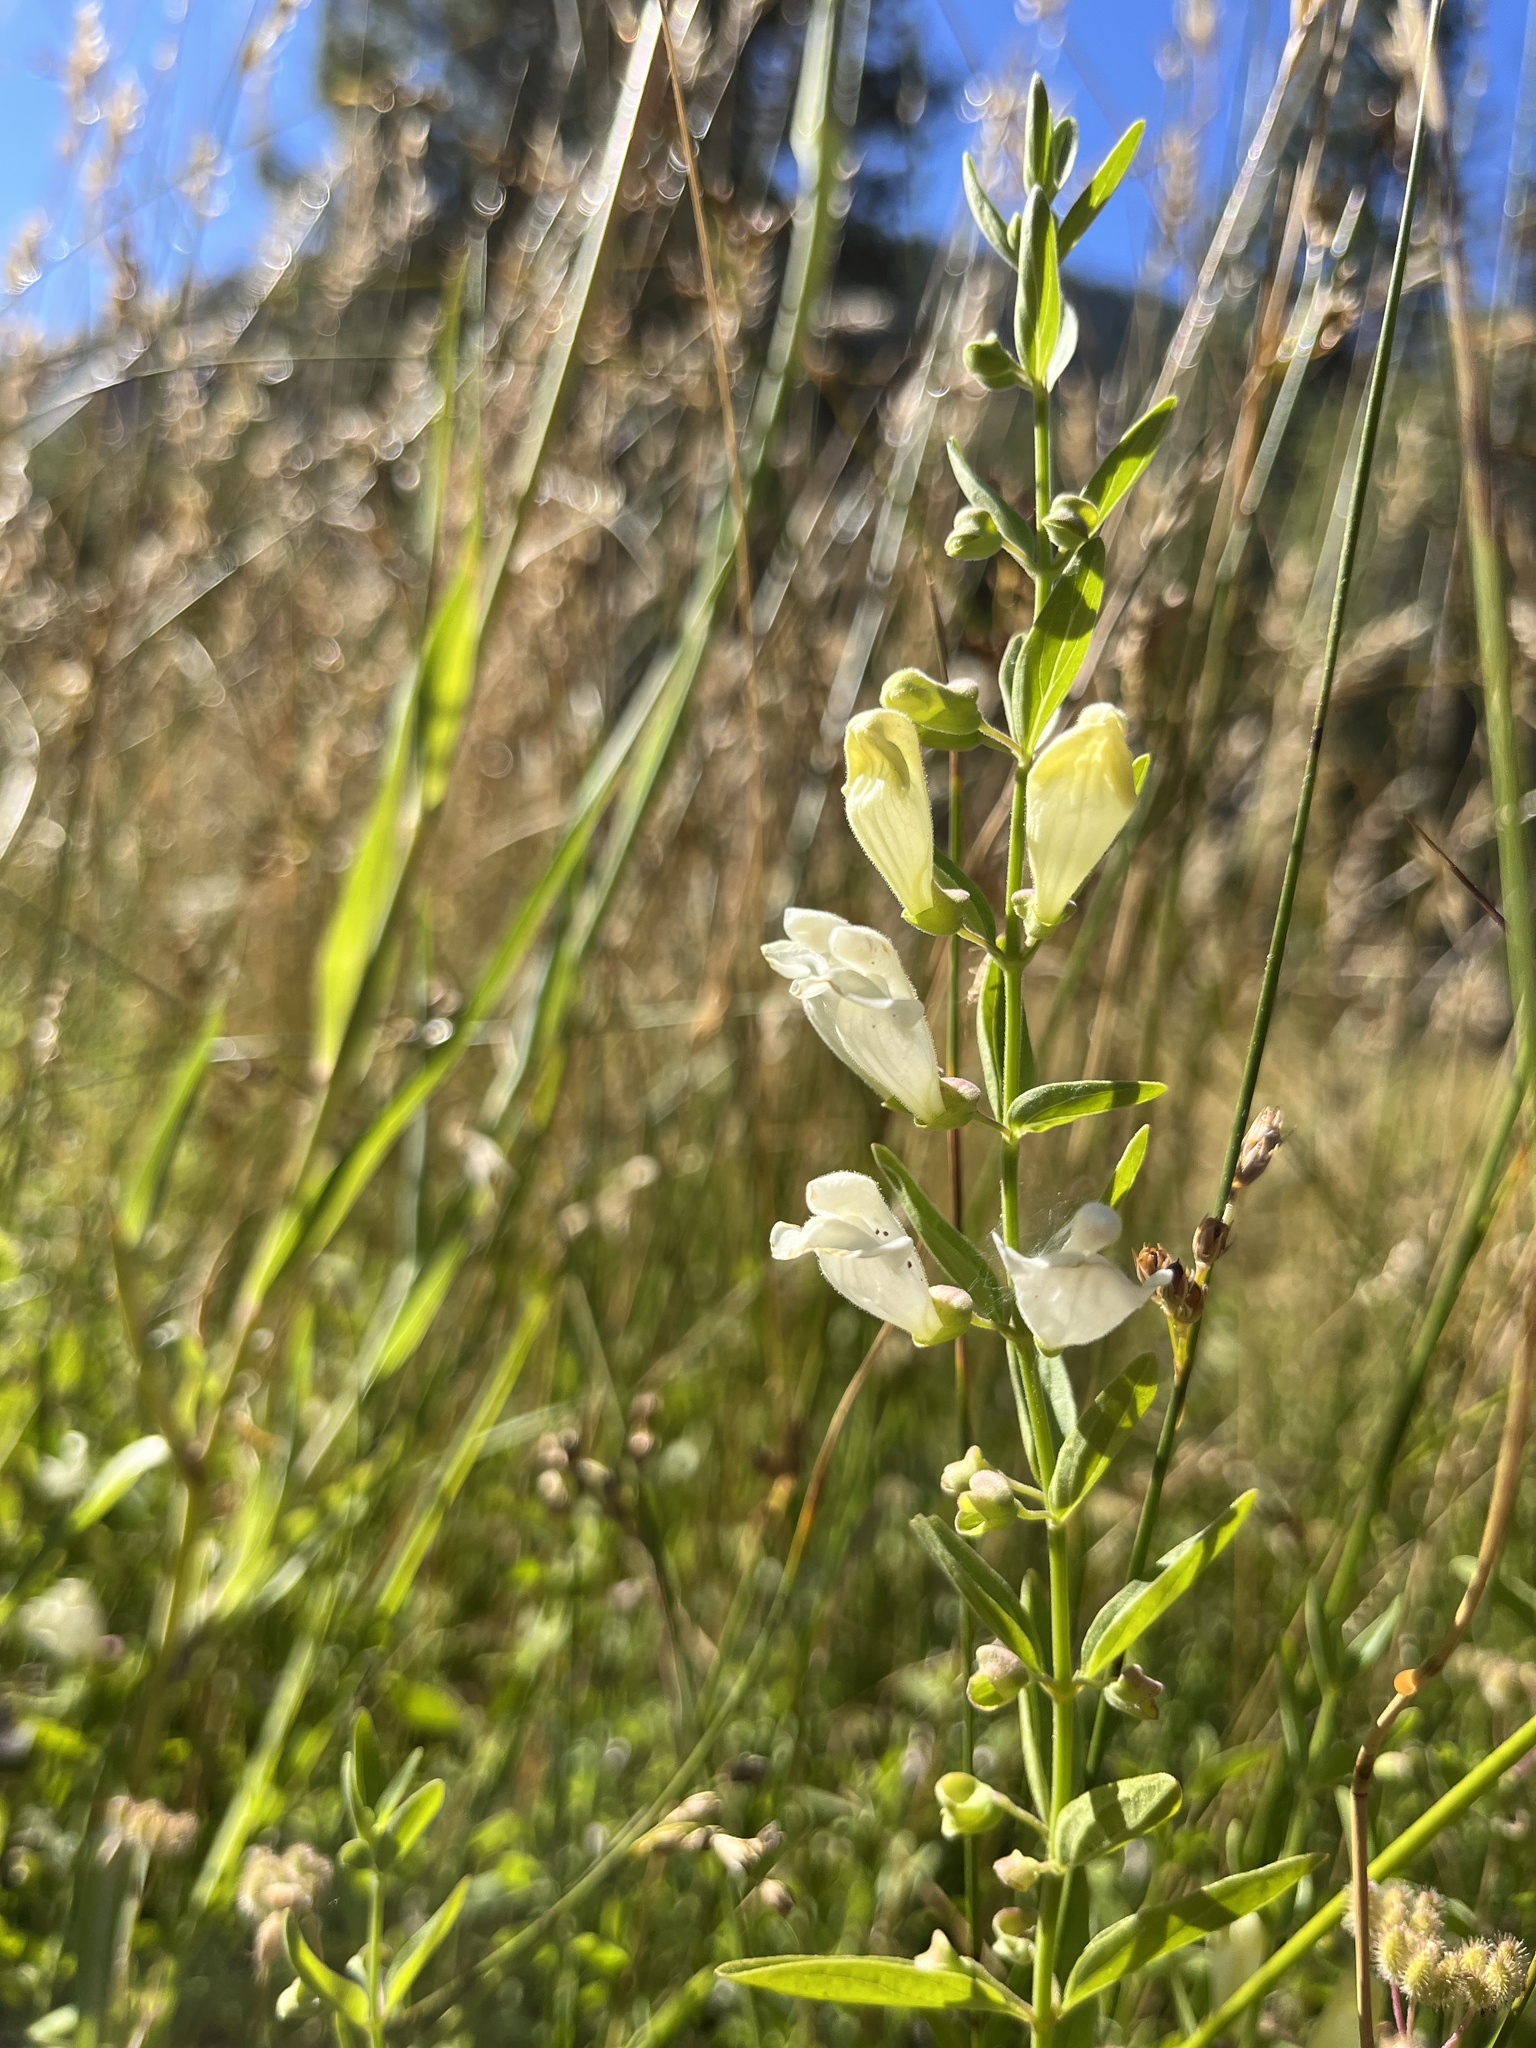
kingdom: Plantae
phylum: Tracheophyta
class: Magnoliopsida
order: Lamiales
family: Lamiaceae
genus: Scutellaria
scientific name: Scutellaria californica
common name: California scullcap
